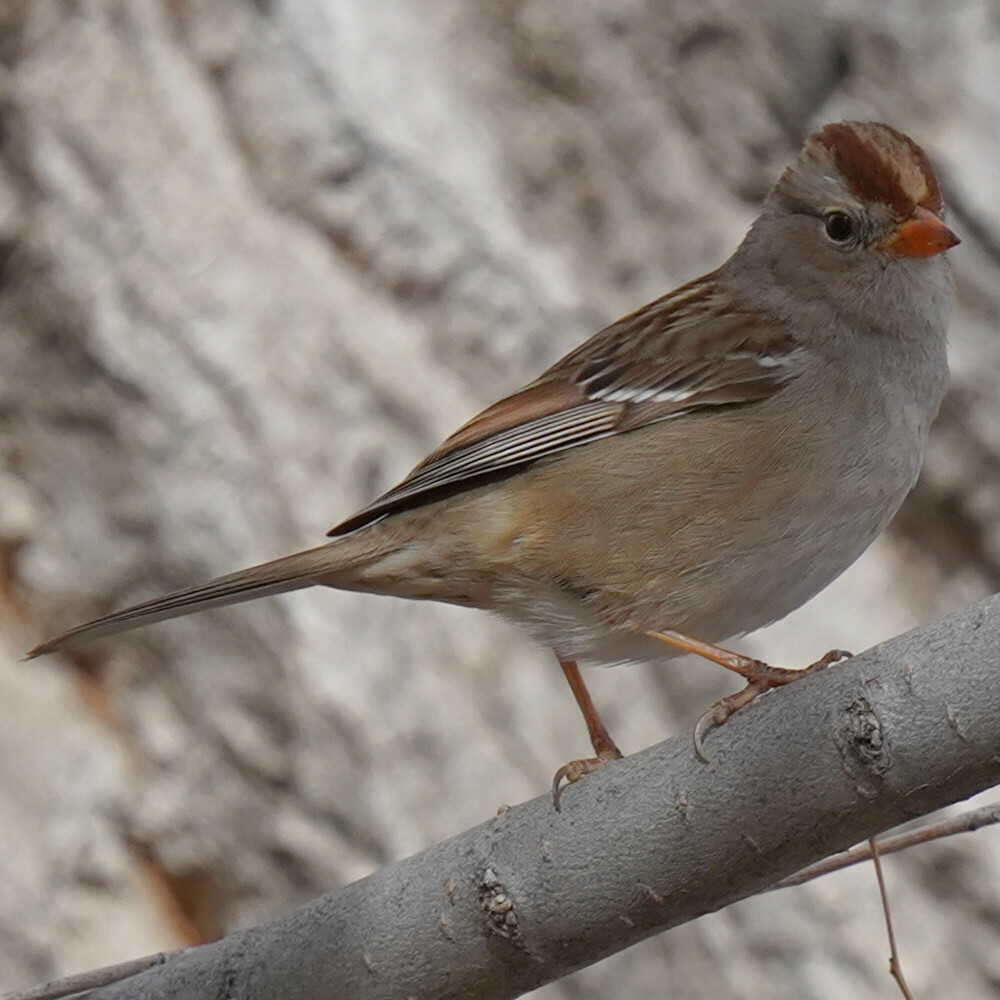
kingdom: Animalia
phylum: Chordata
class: Aves
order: Passeriformes
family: Passerellidae
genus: Zonotrichia
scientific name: Zonotrichia leucophrys
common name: White-crowned sparrow
